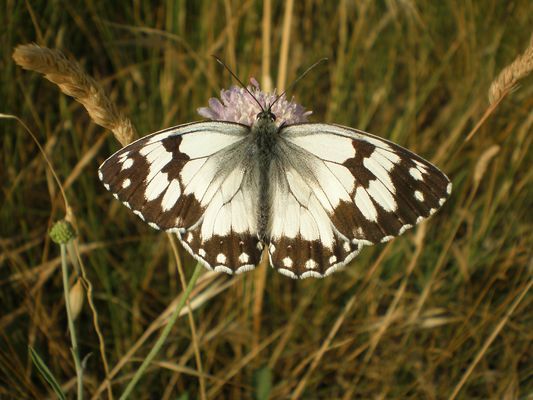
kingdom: Animalia
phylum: Arthropoda
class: Insecta
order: Lepidoptera
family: Nymphalidae
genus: Melanargia
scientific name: Melanargia lachesis
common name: Iberian marbled white
